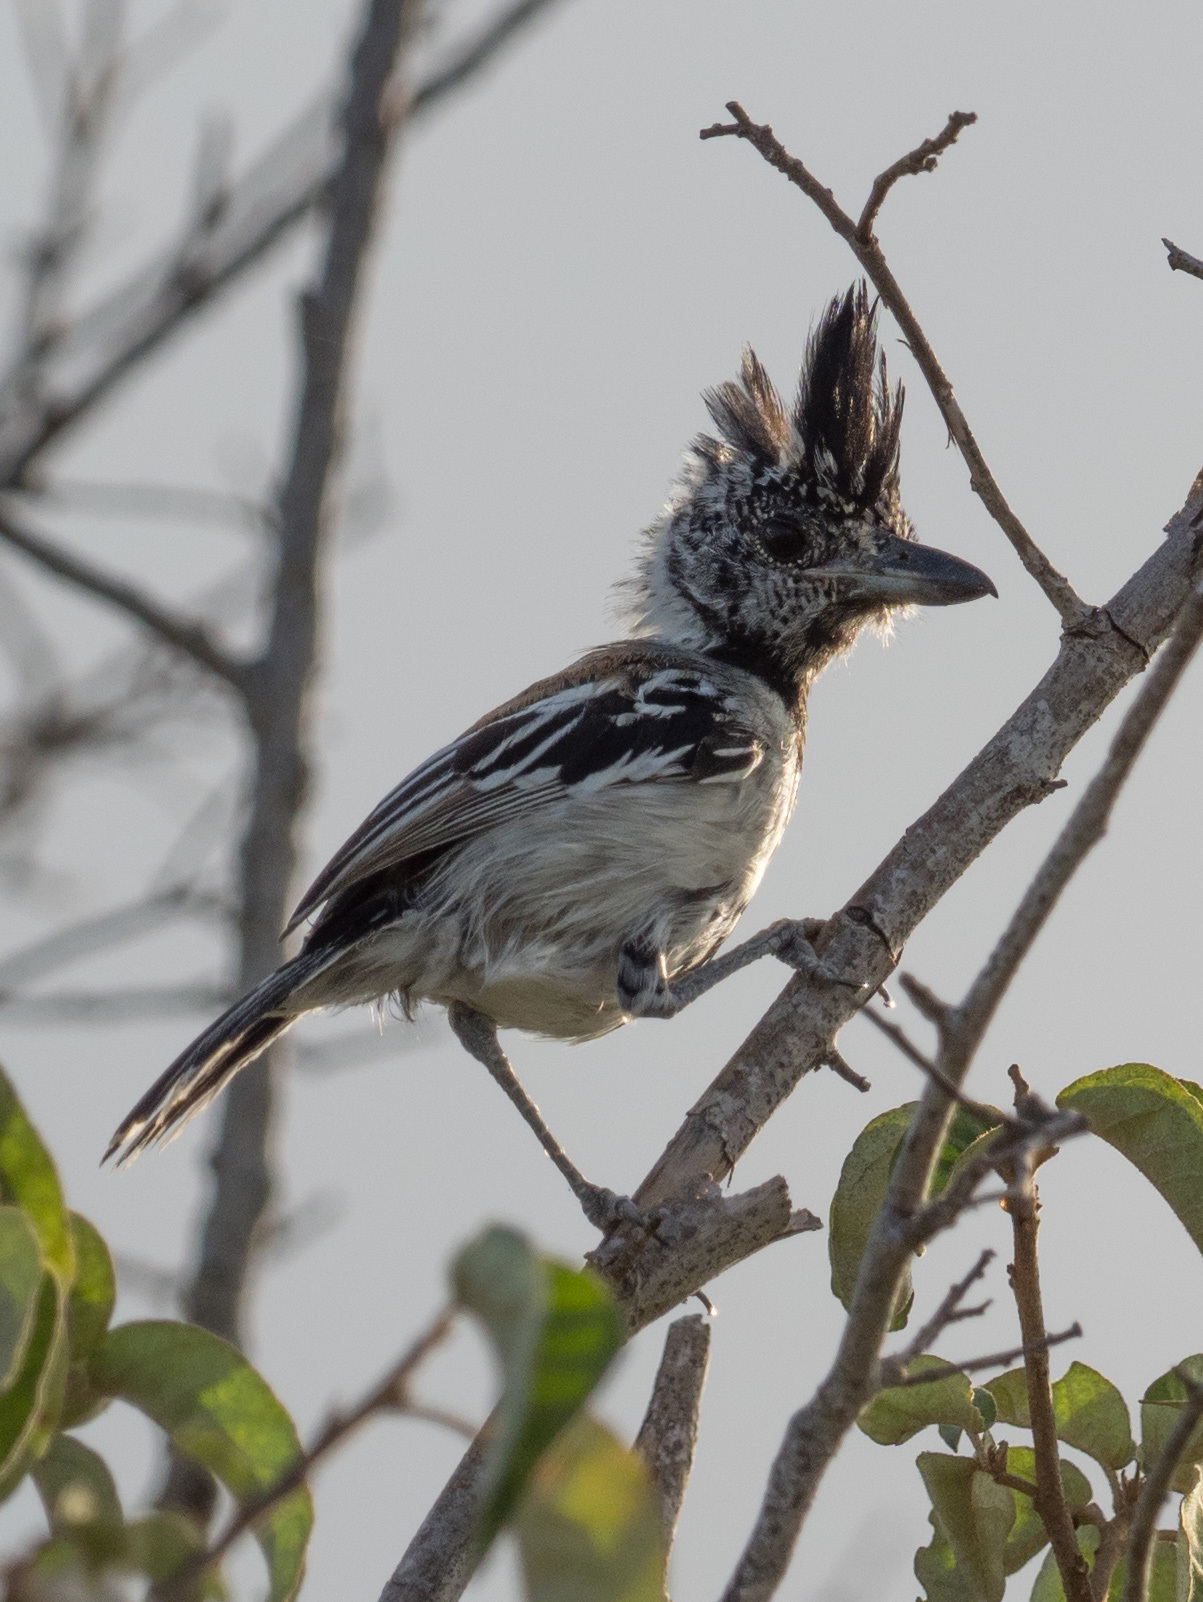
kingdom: Animalia
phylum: Chordata
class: Aves
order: Passeriformes
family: Thamnophilidae
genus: Sakesphorus
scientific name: Sakesphorus canadensis
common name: Black-crested antshrike
